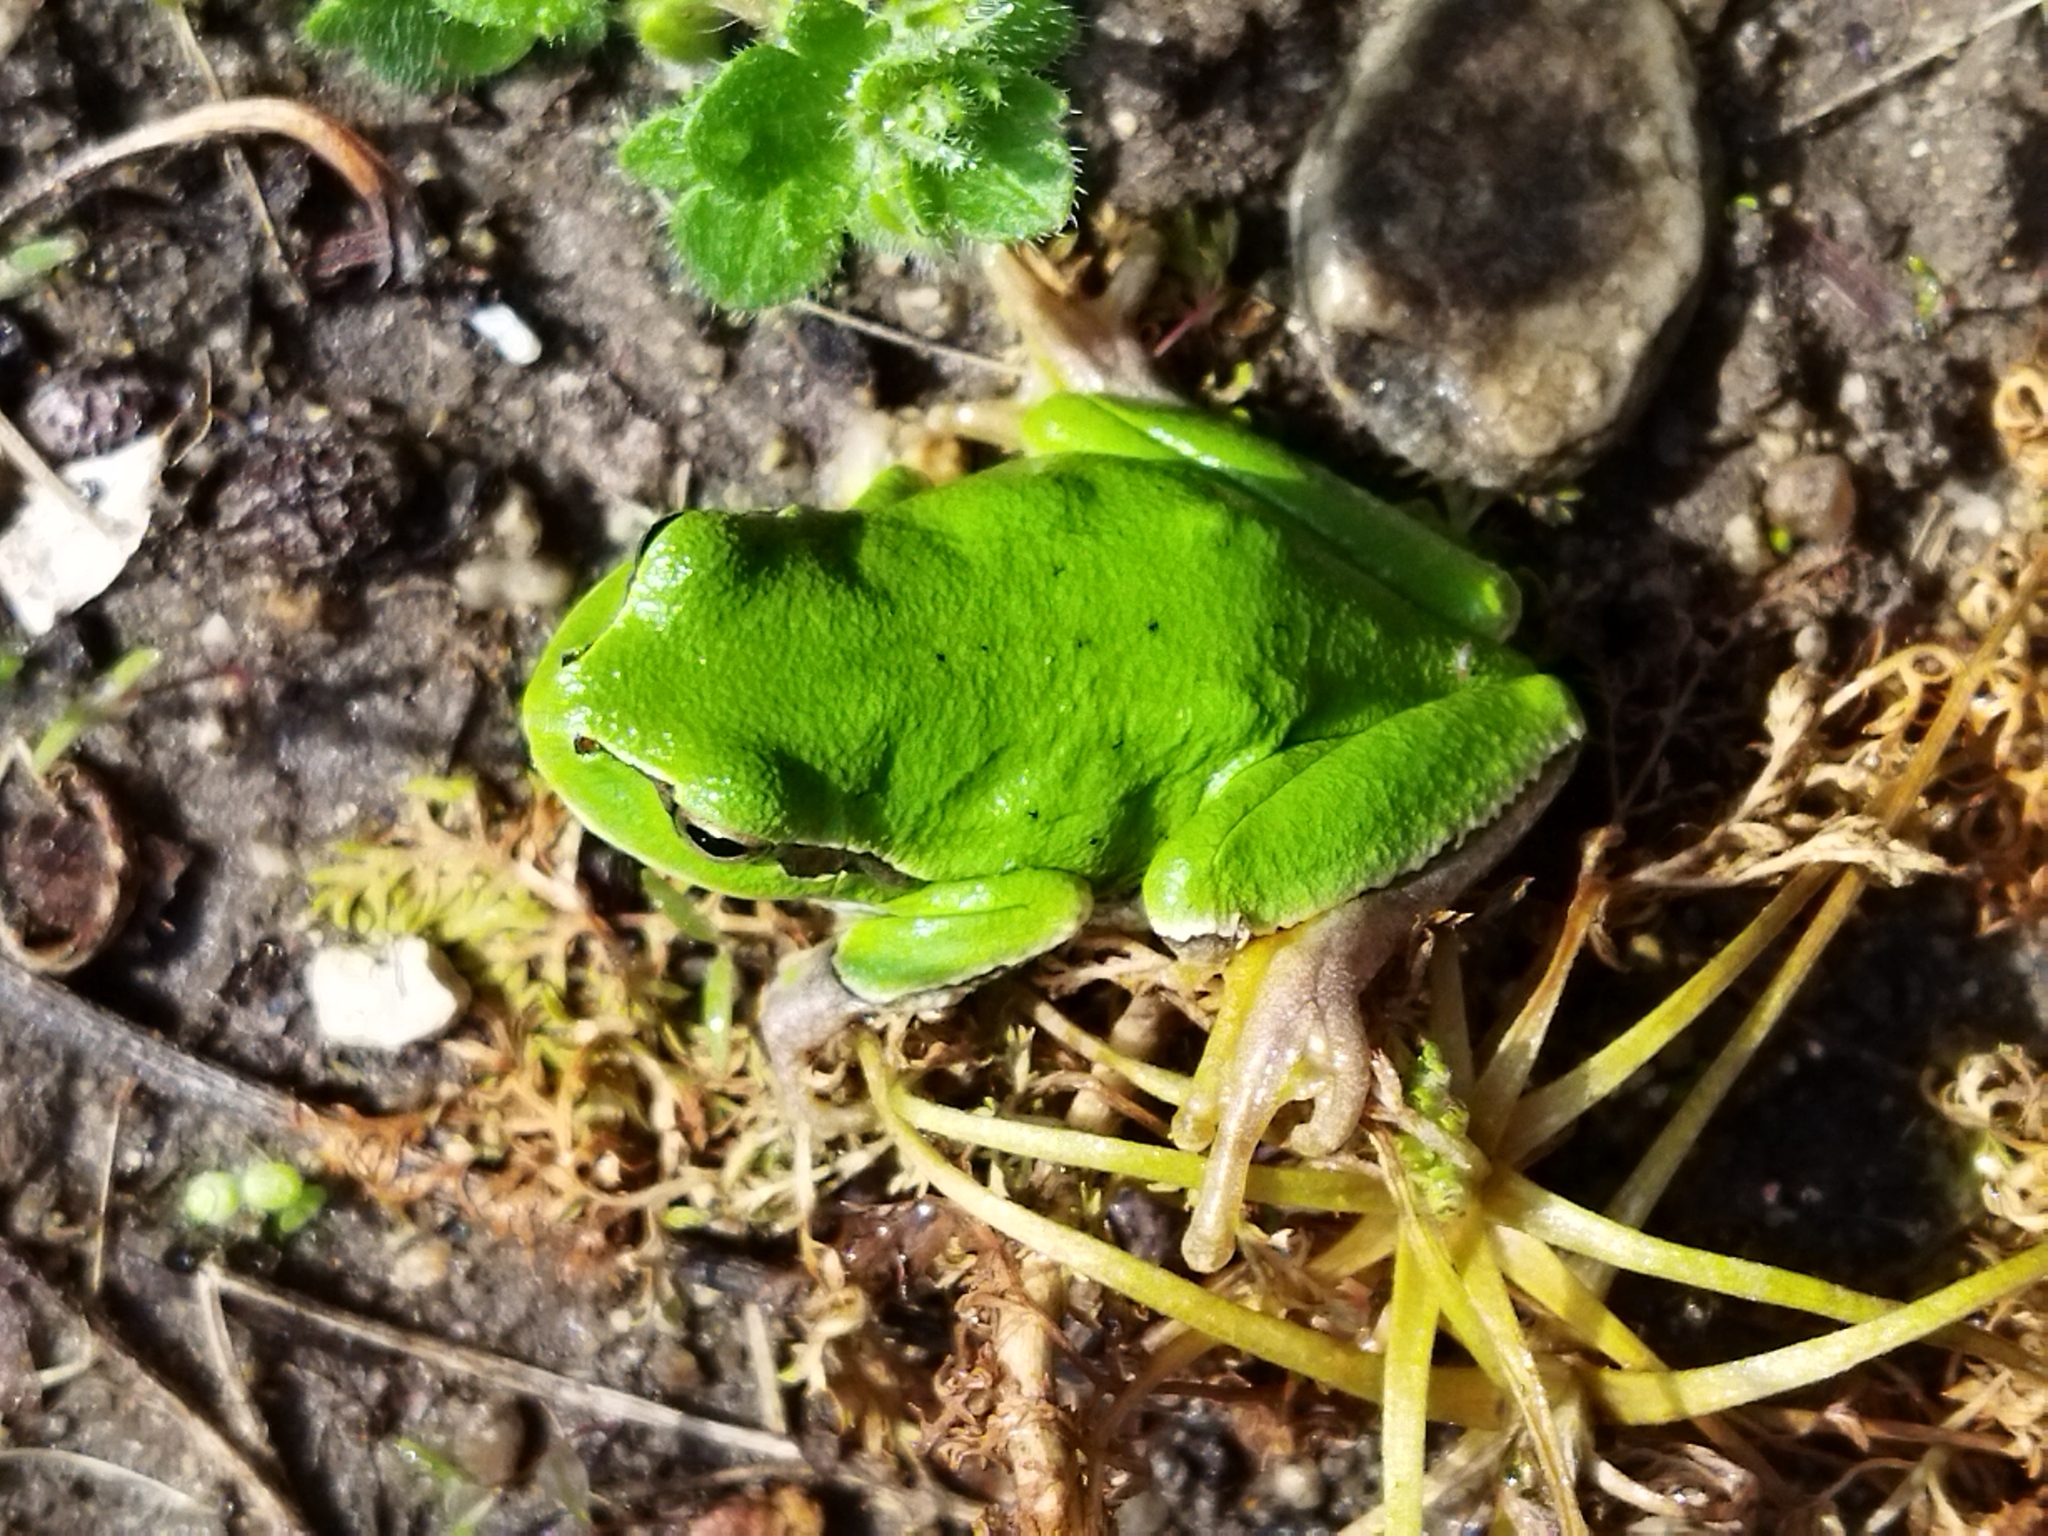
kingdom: Animalia
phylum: Chordata
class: Amphibia
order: Anura
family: Hylidae
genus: Hyla
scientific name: Hyla orientalis
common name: Caucasian treefrog
